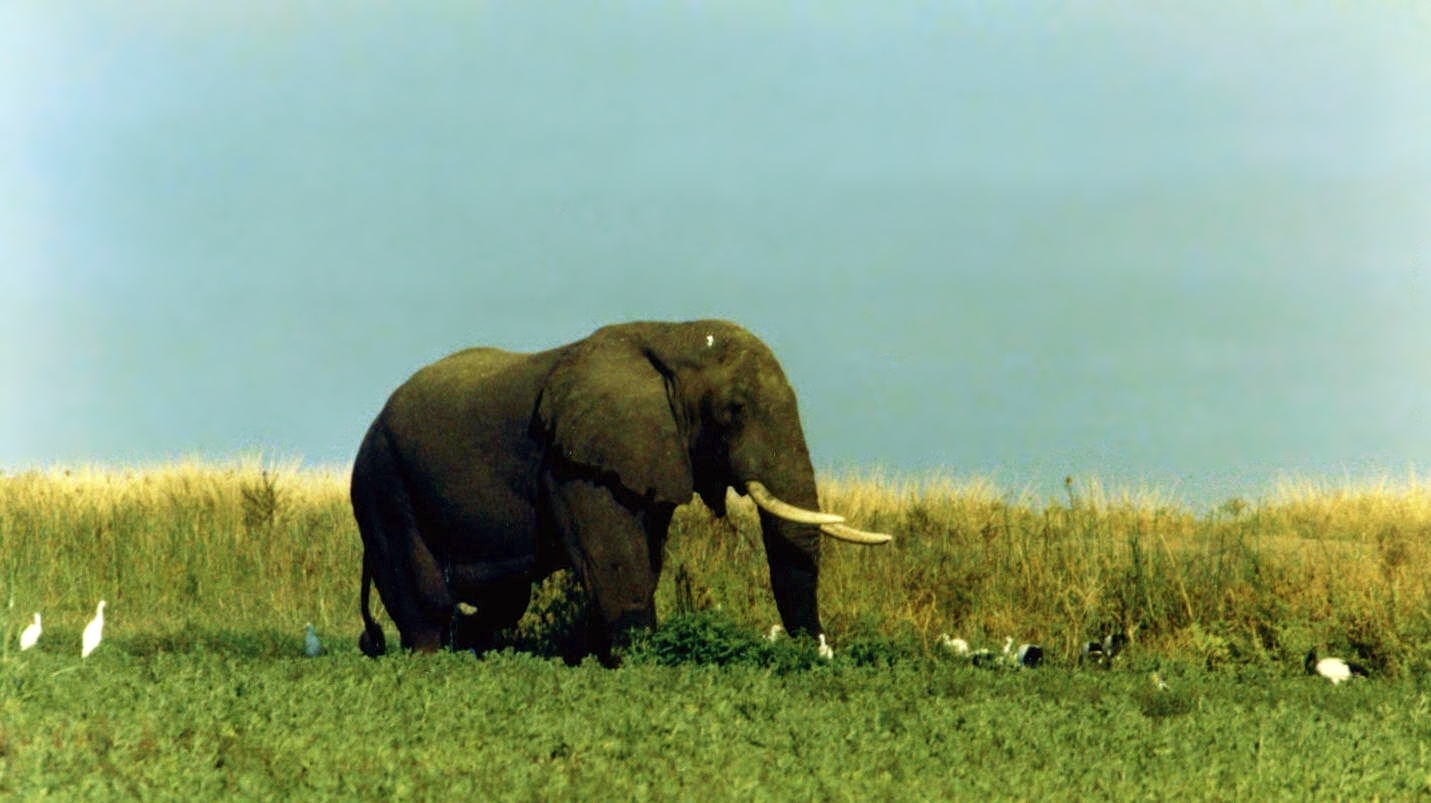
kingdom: Animalia
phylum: Chordata
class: Mammalia
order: Proboscidea
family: Elephantidae
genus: Loxodonta
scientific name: Loxodonta africana
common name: African elephant
